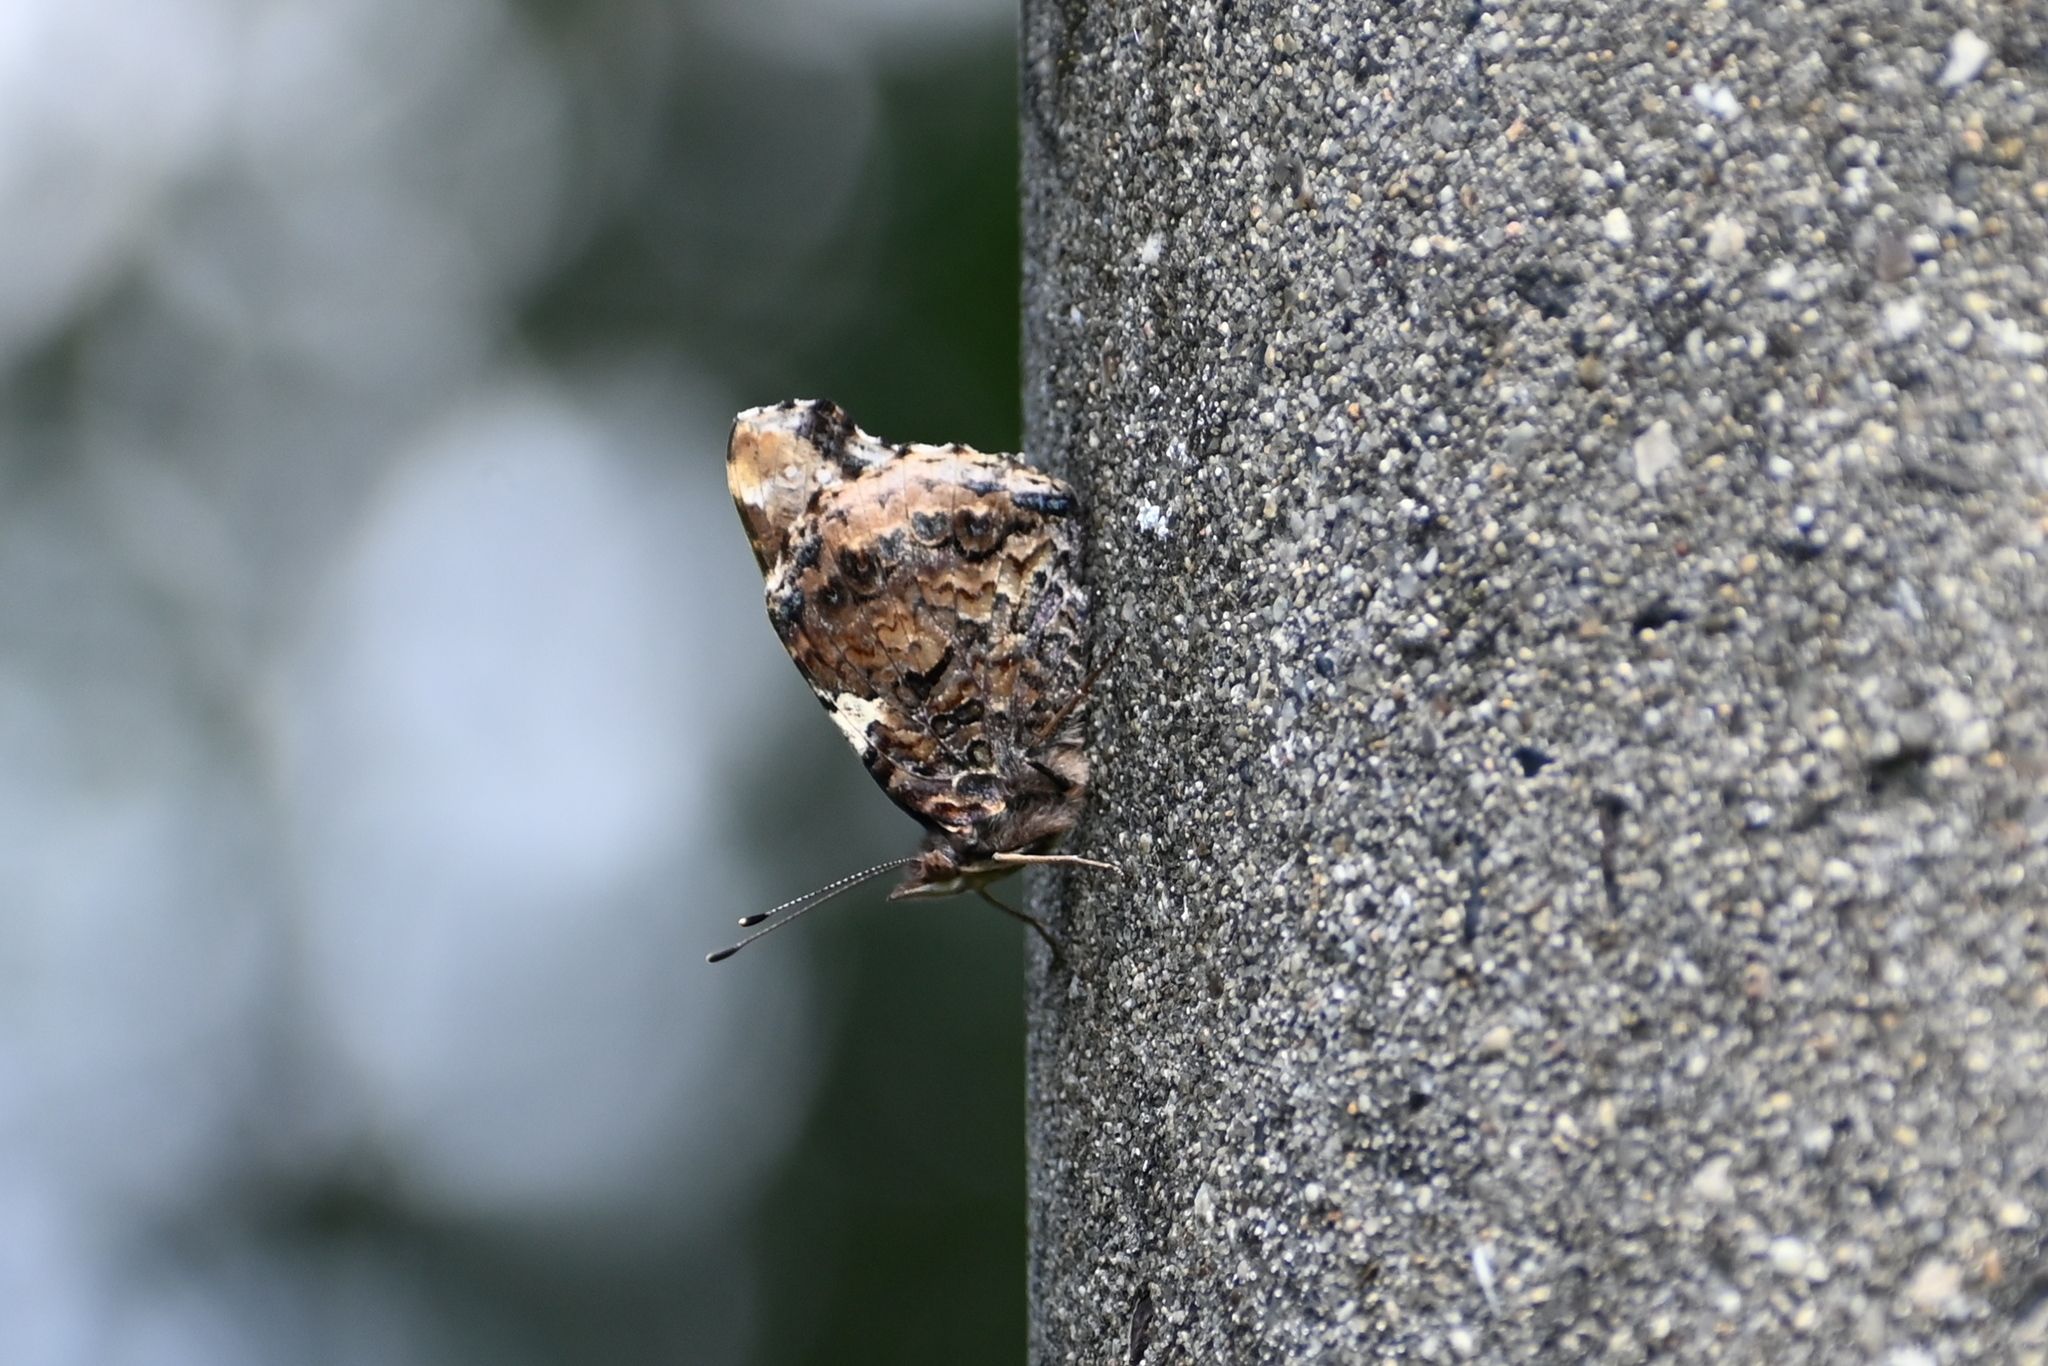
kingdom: Animalia
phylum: Arthropoda
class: Insecta
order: Lepidoptera
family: Nymphalidae
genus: Vanessa
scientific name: Vanessa atalanta
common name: Red admiral
